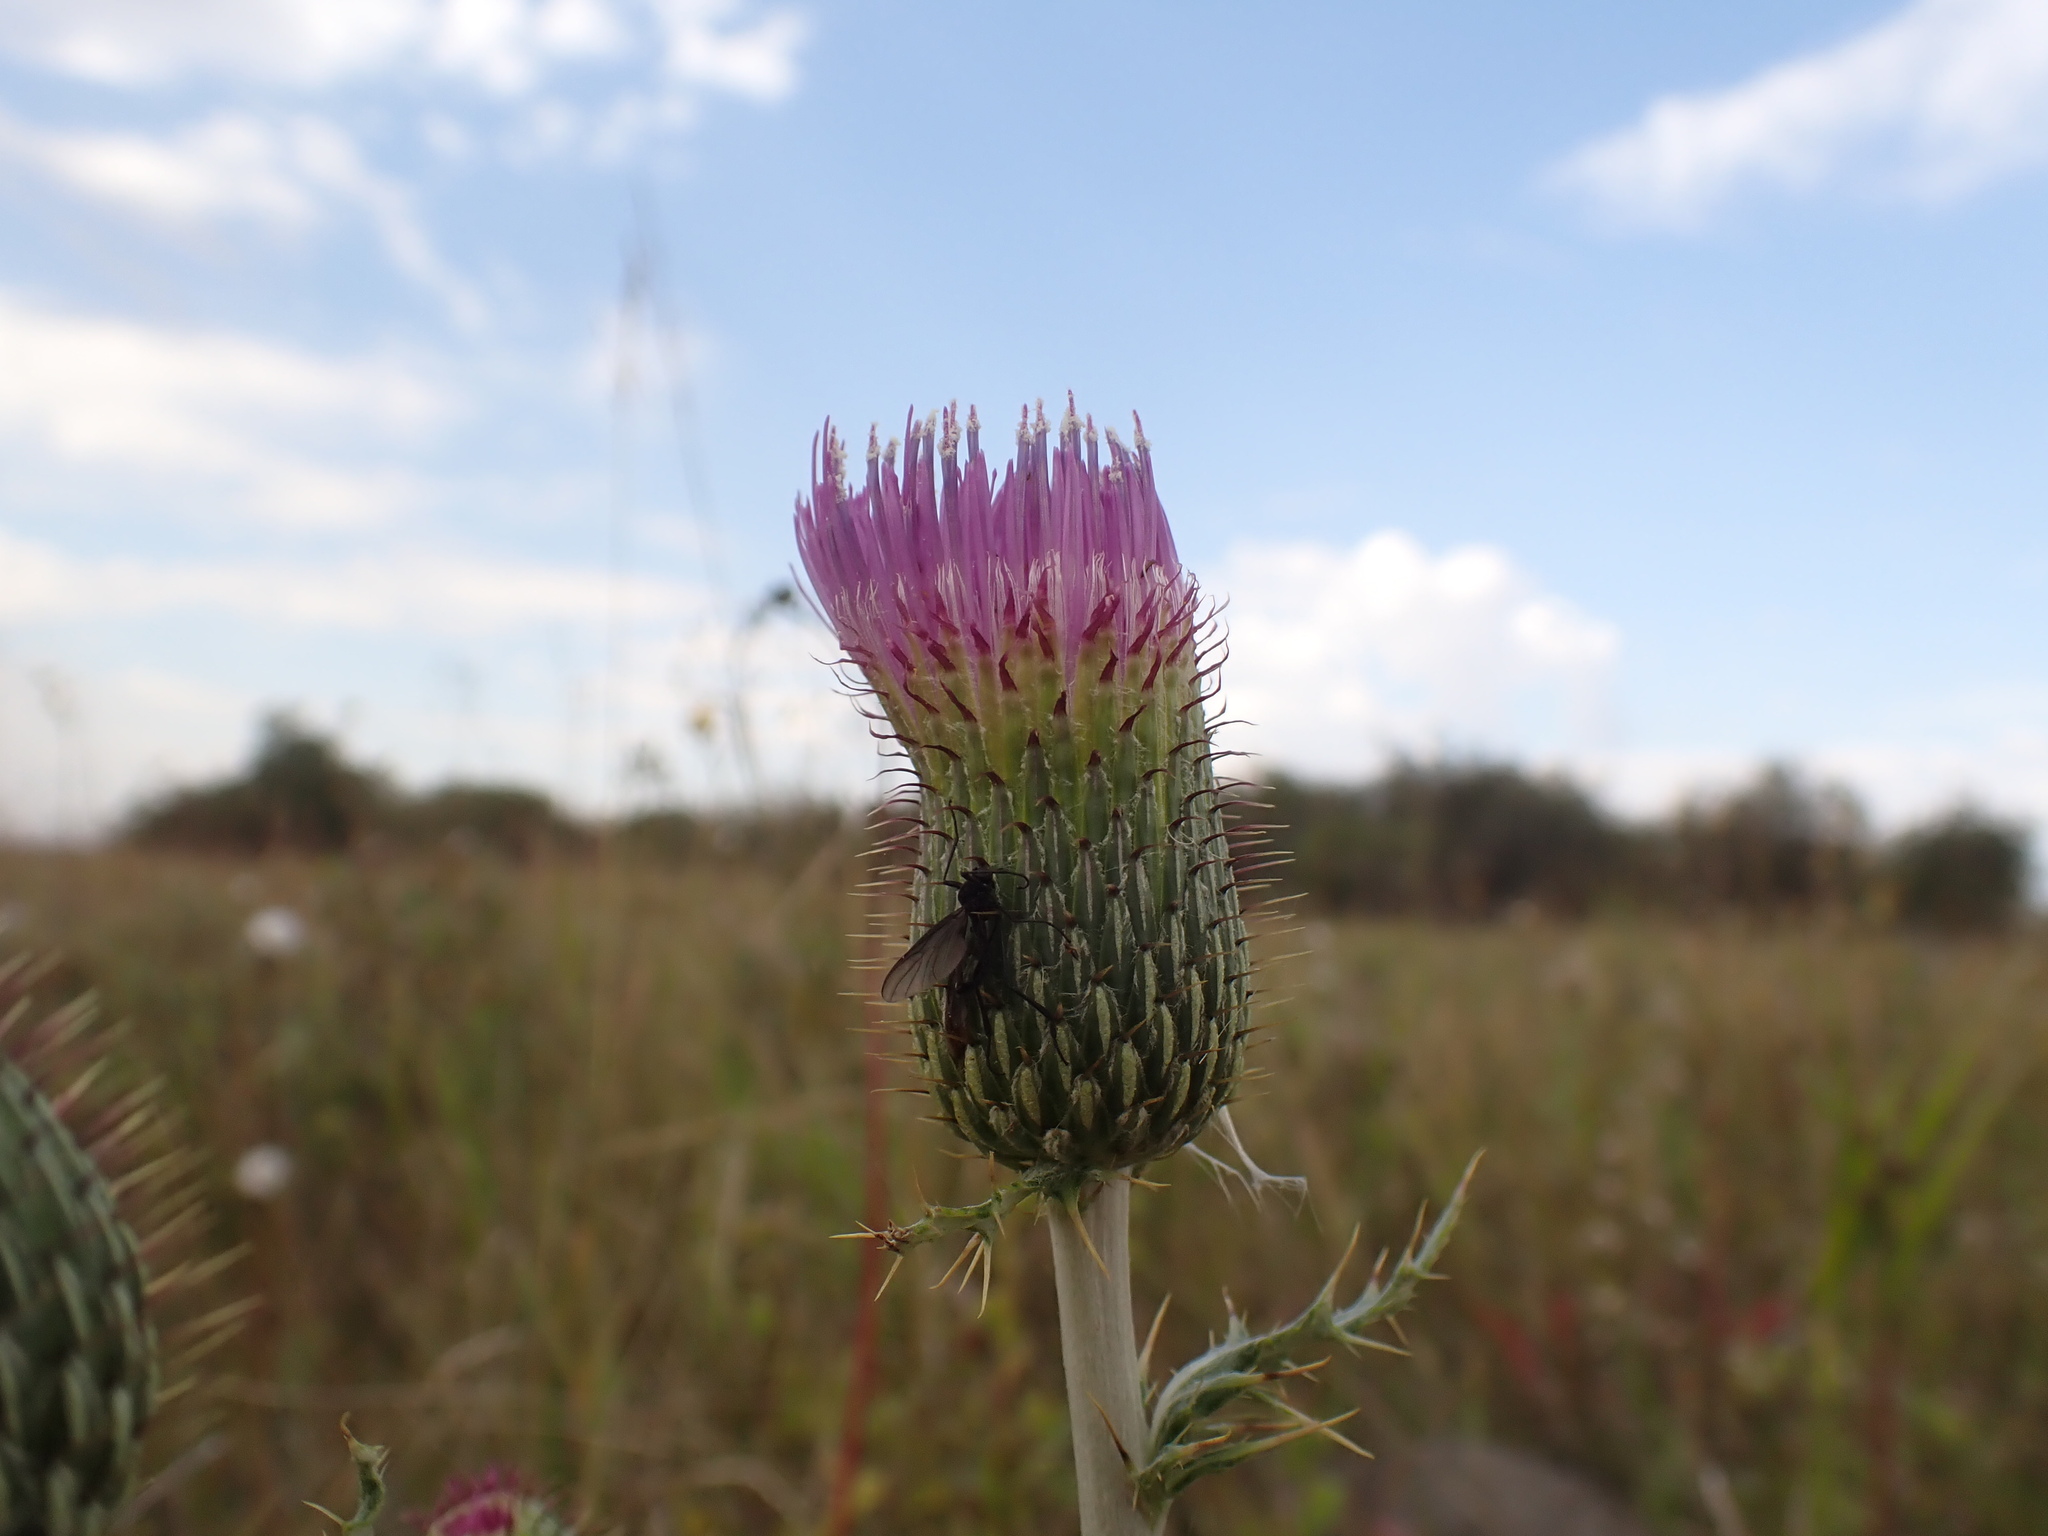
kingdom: Plantae
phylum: Tracheophyta
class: Magnoliopsida
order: Asterales
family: Asteraceae
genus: Cirsium
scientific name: Cirsium flodmanii
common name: Flodman's thistle
